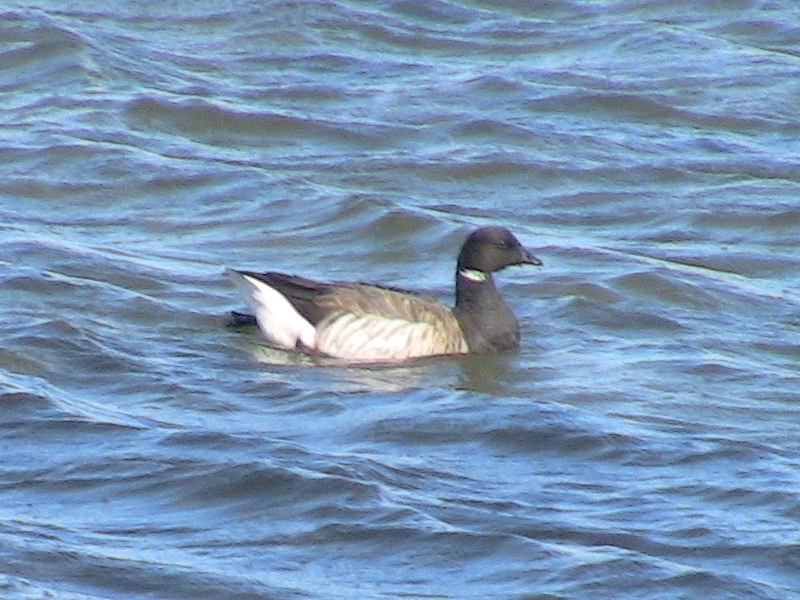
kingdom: Animalia
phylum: Chordata
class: Aves
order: Anseriformes
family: Anatidae
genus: Branta
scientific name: Branta bernicla
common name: Brant goose
